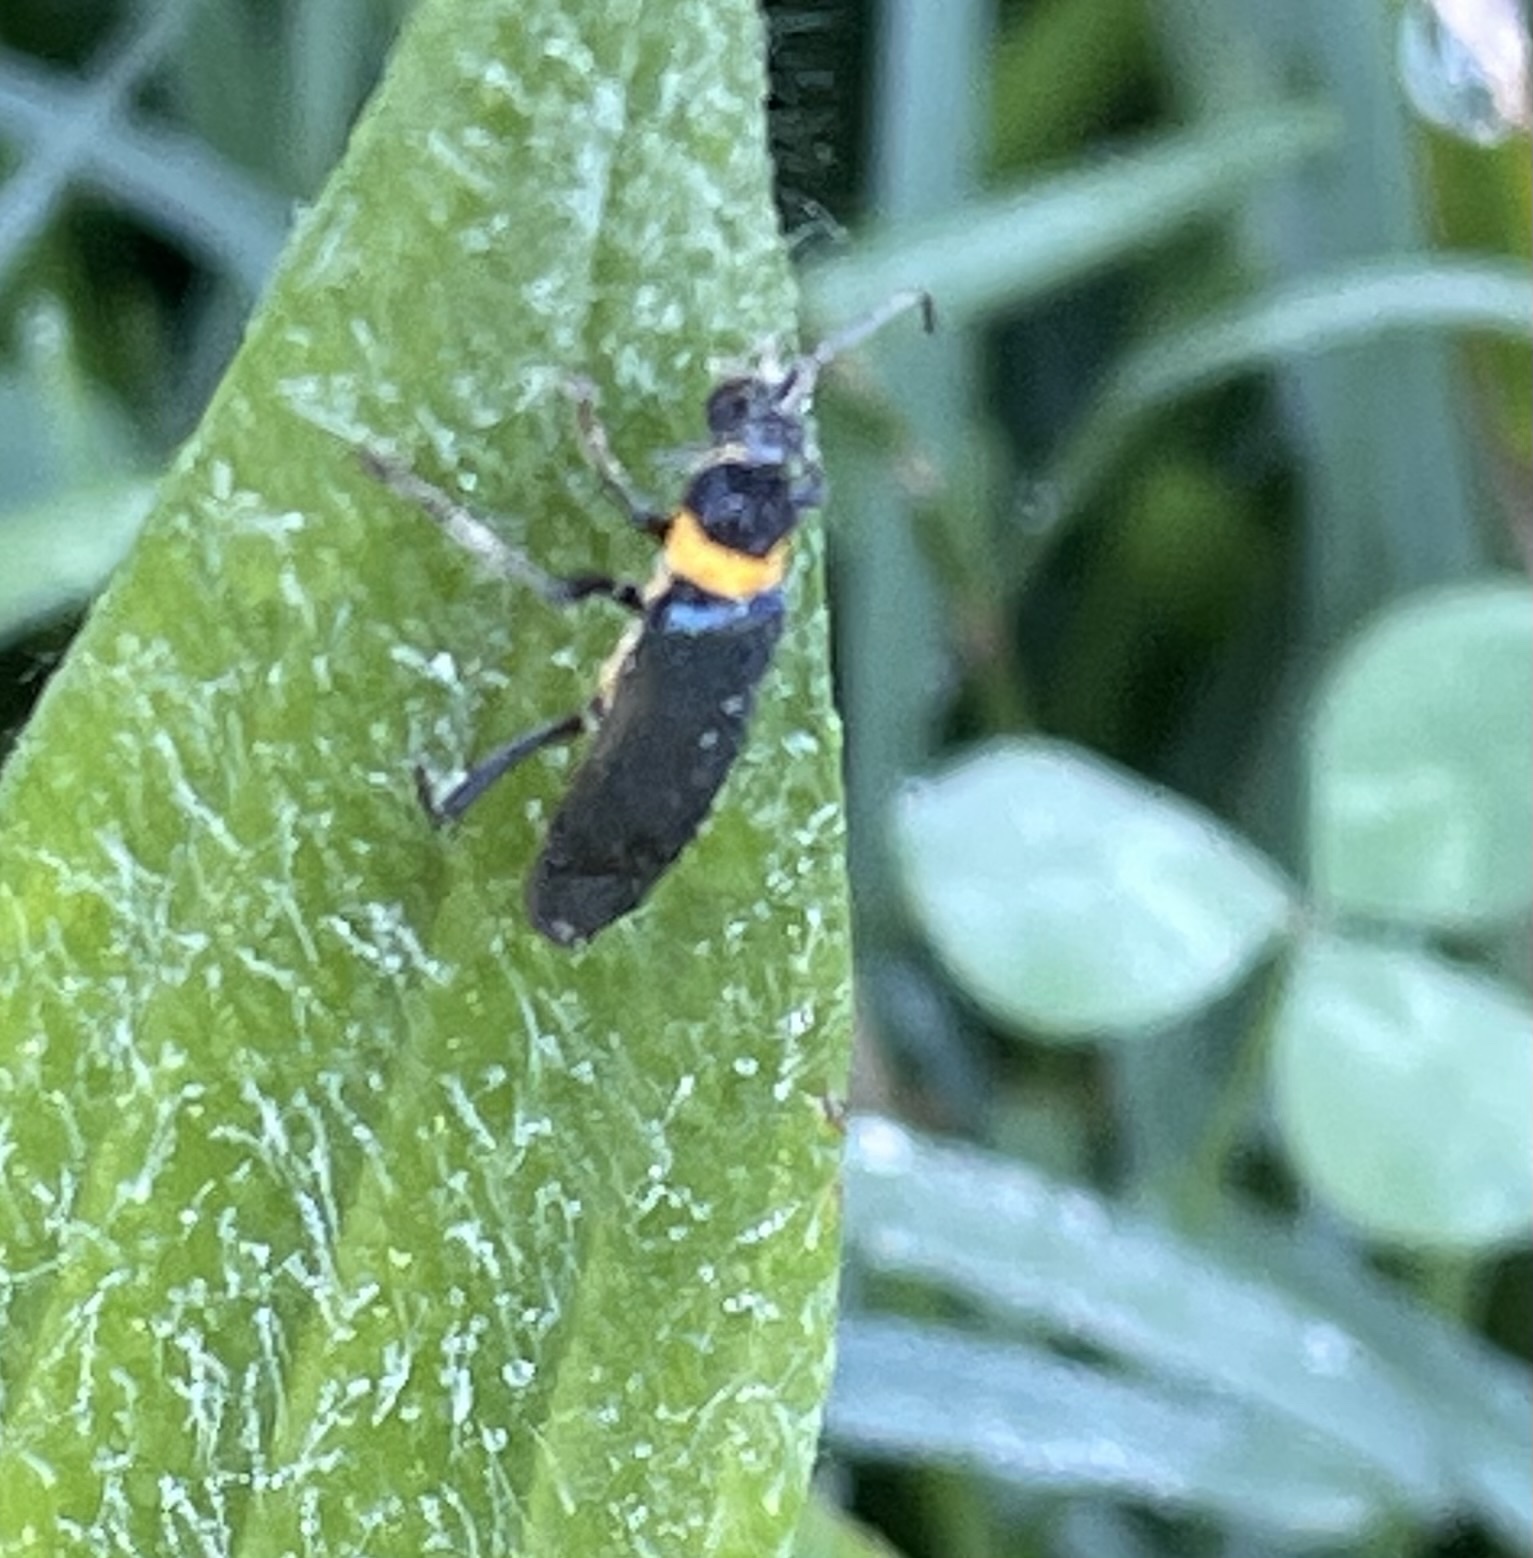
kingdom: Animalia
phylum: Arthropoda
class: Insecta
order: Coleoptera
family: Cantharidae
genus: Chauliognathus
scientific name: Chauliognathus
